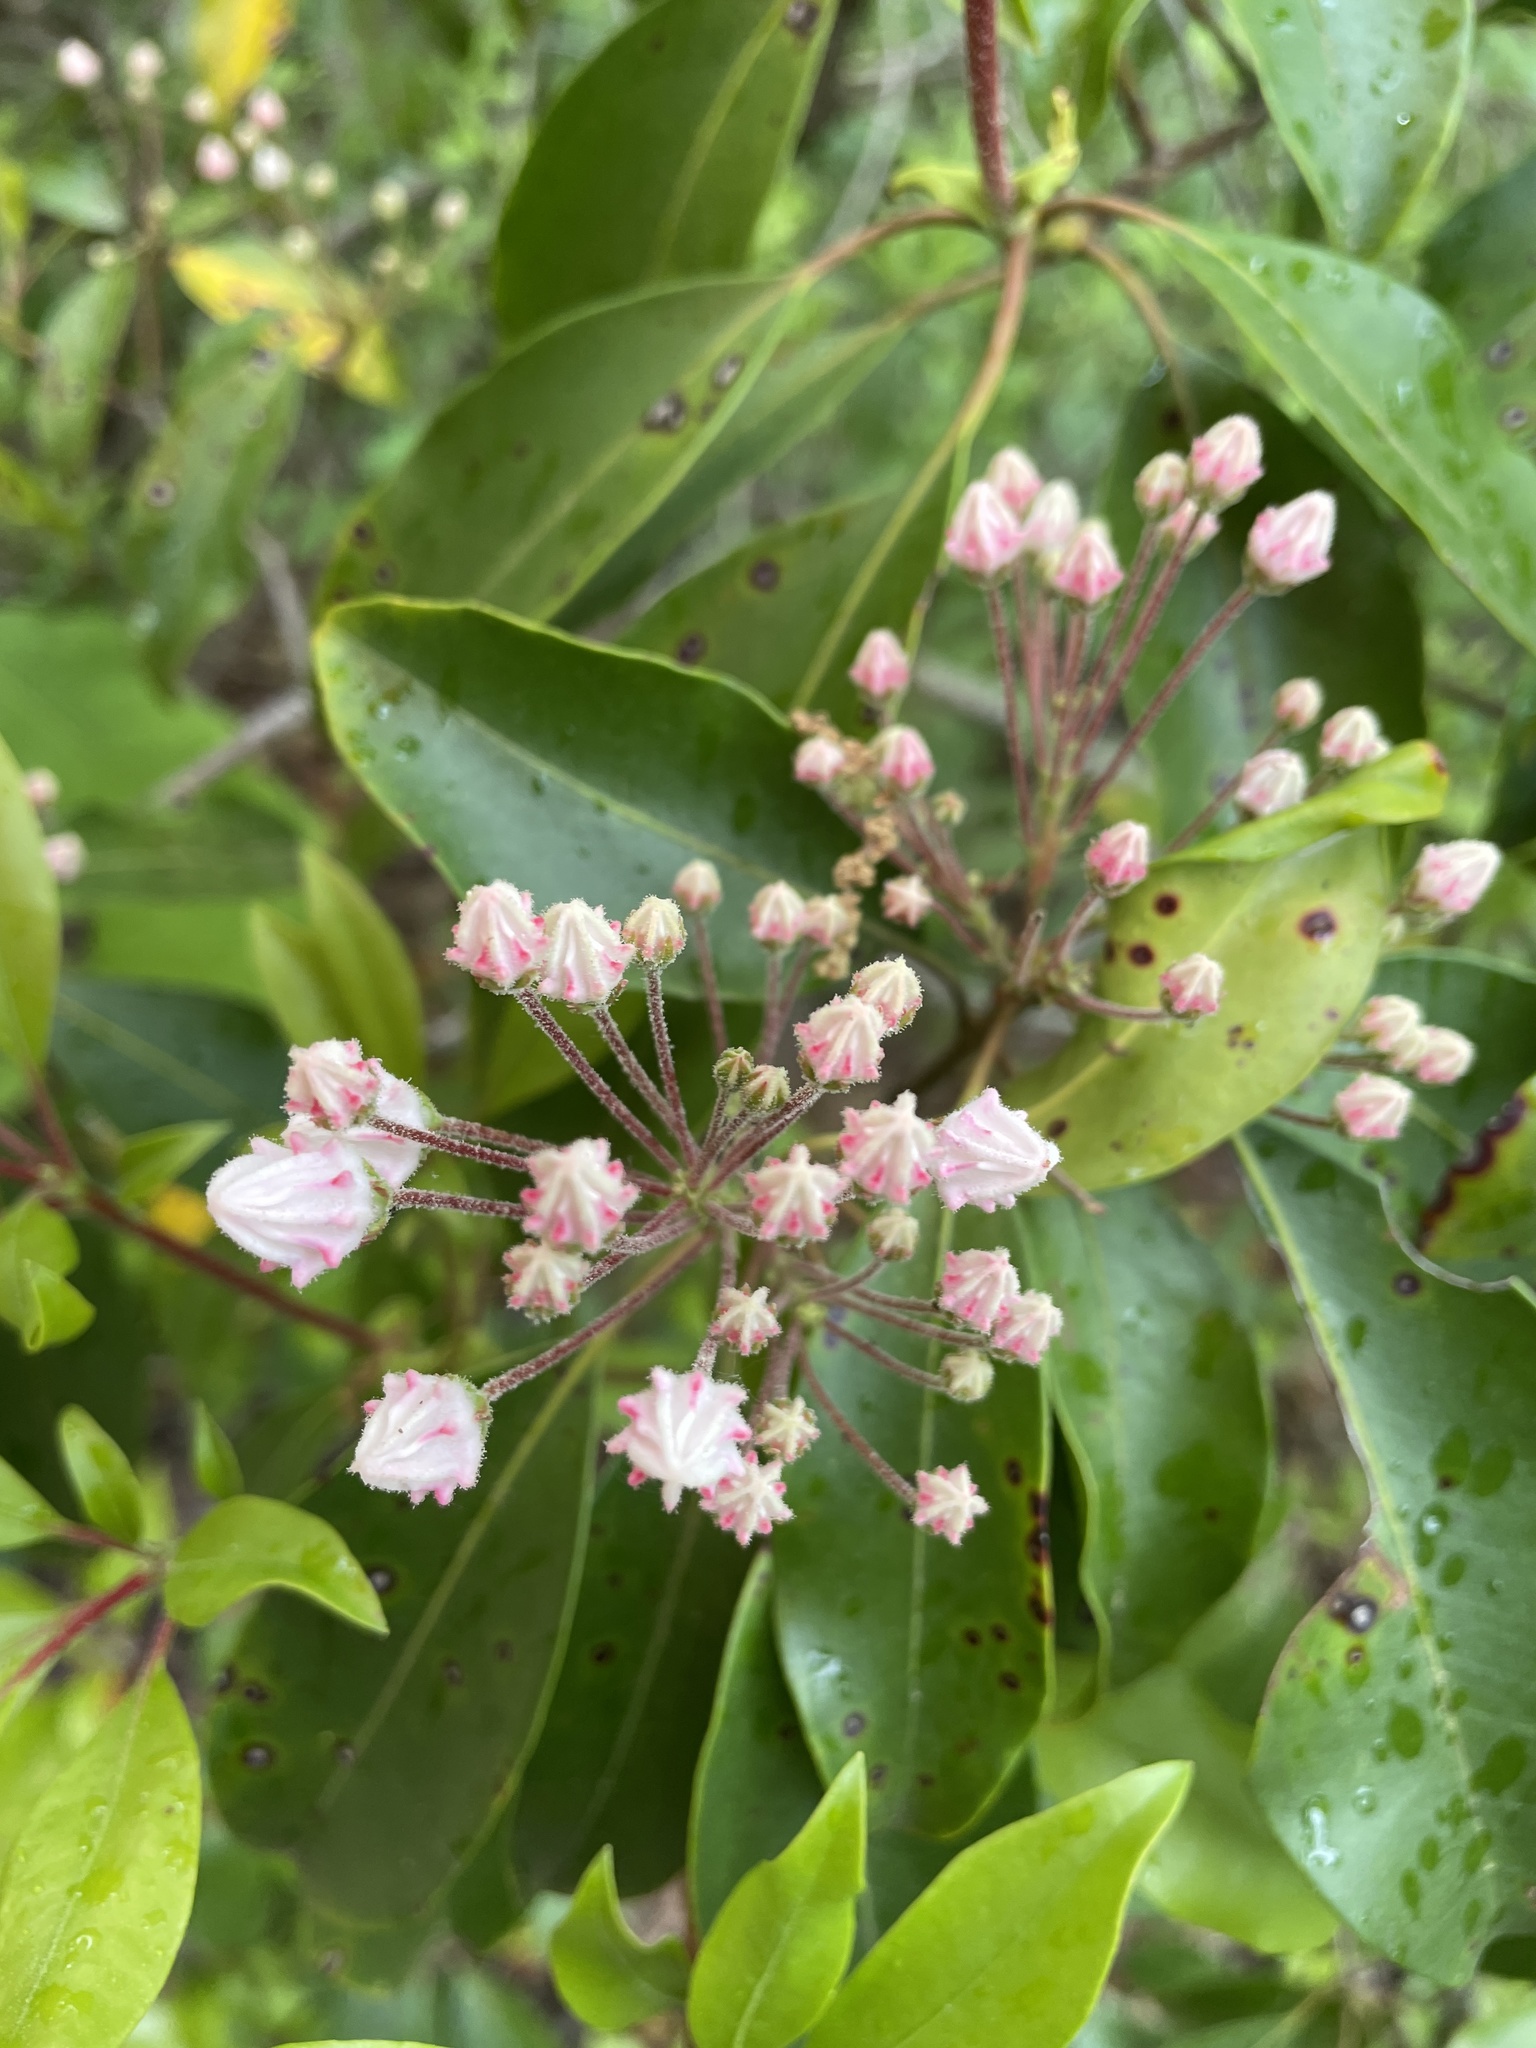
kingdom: Plantae
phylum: Tracheophyta
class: Magnoliopsida
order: Ericales
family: Ericaceae
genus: Kalmia
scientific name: Kalmia latifolia
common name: Mountain-laurel
